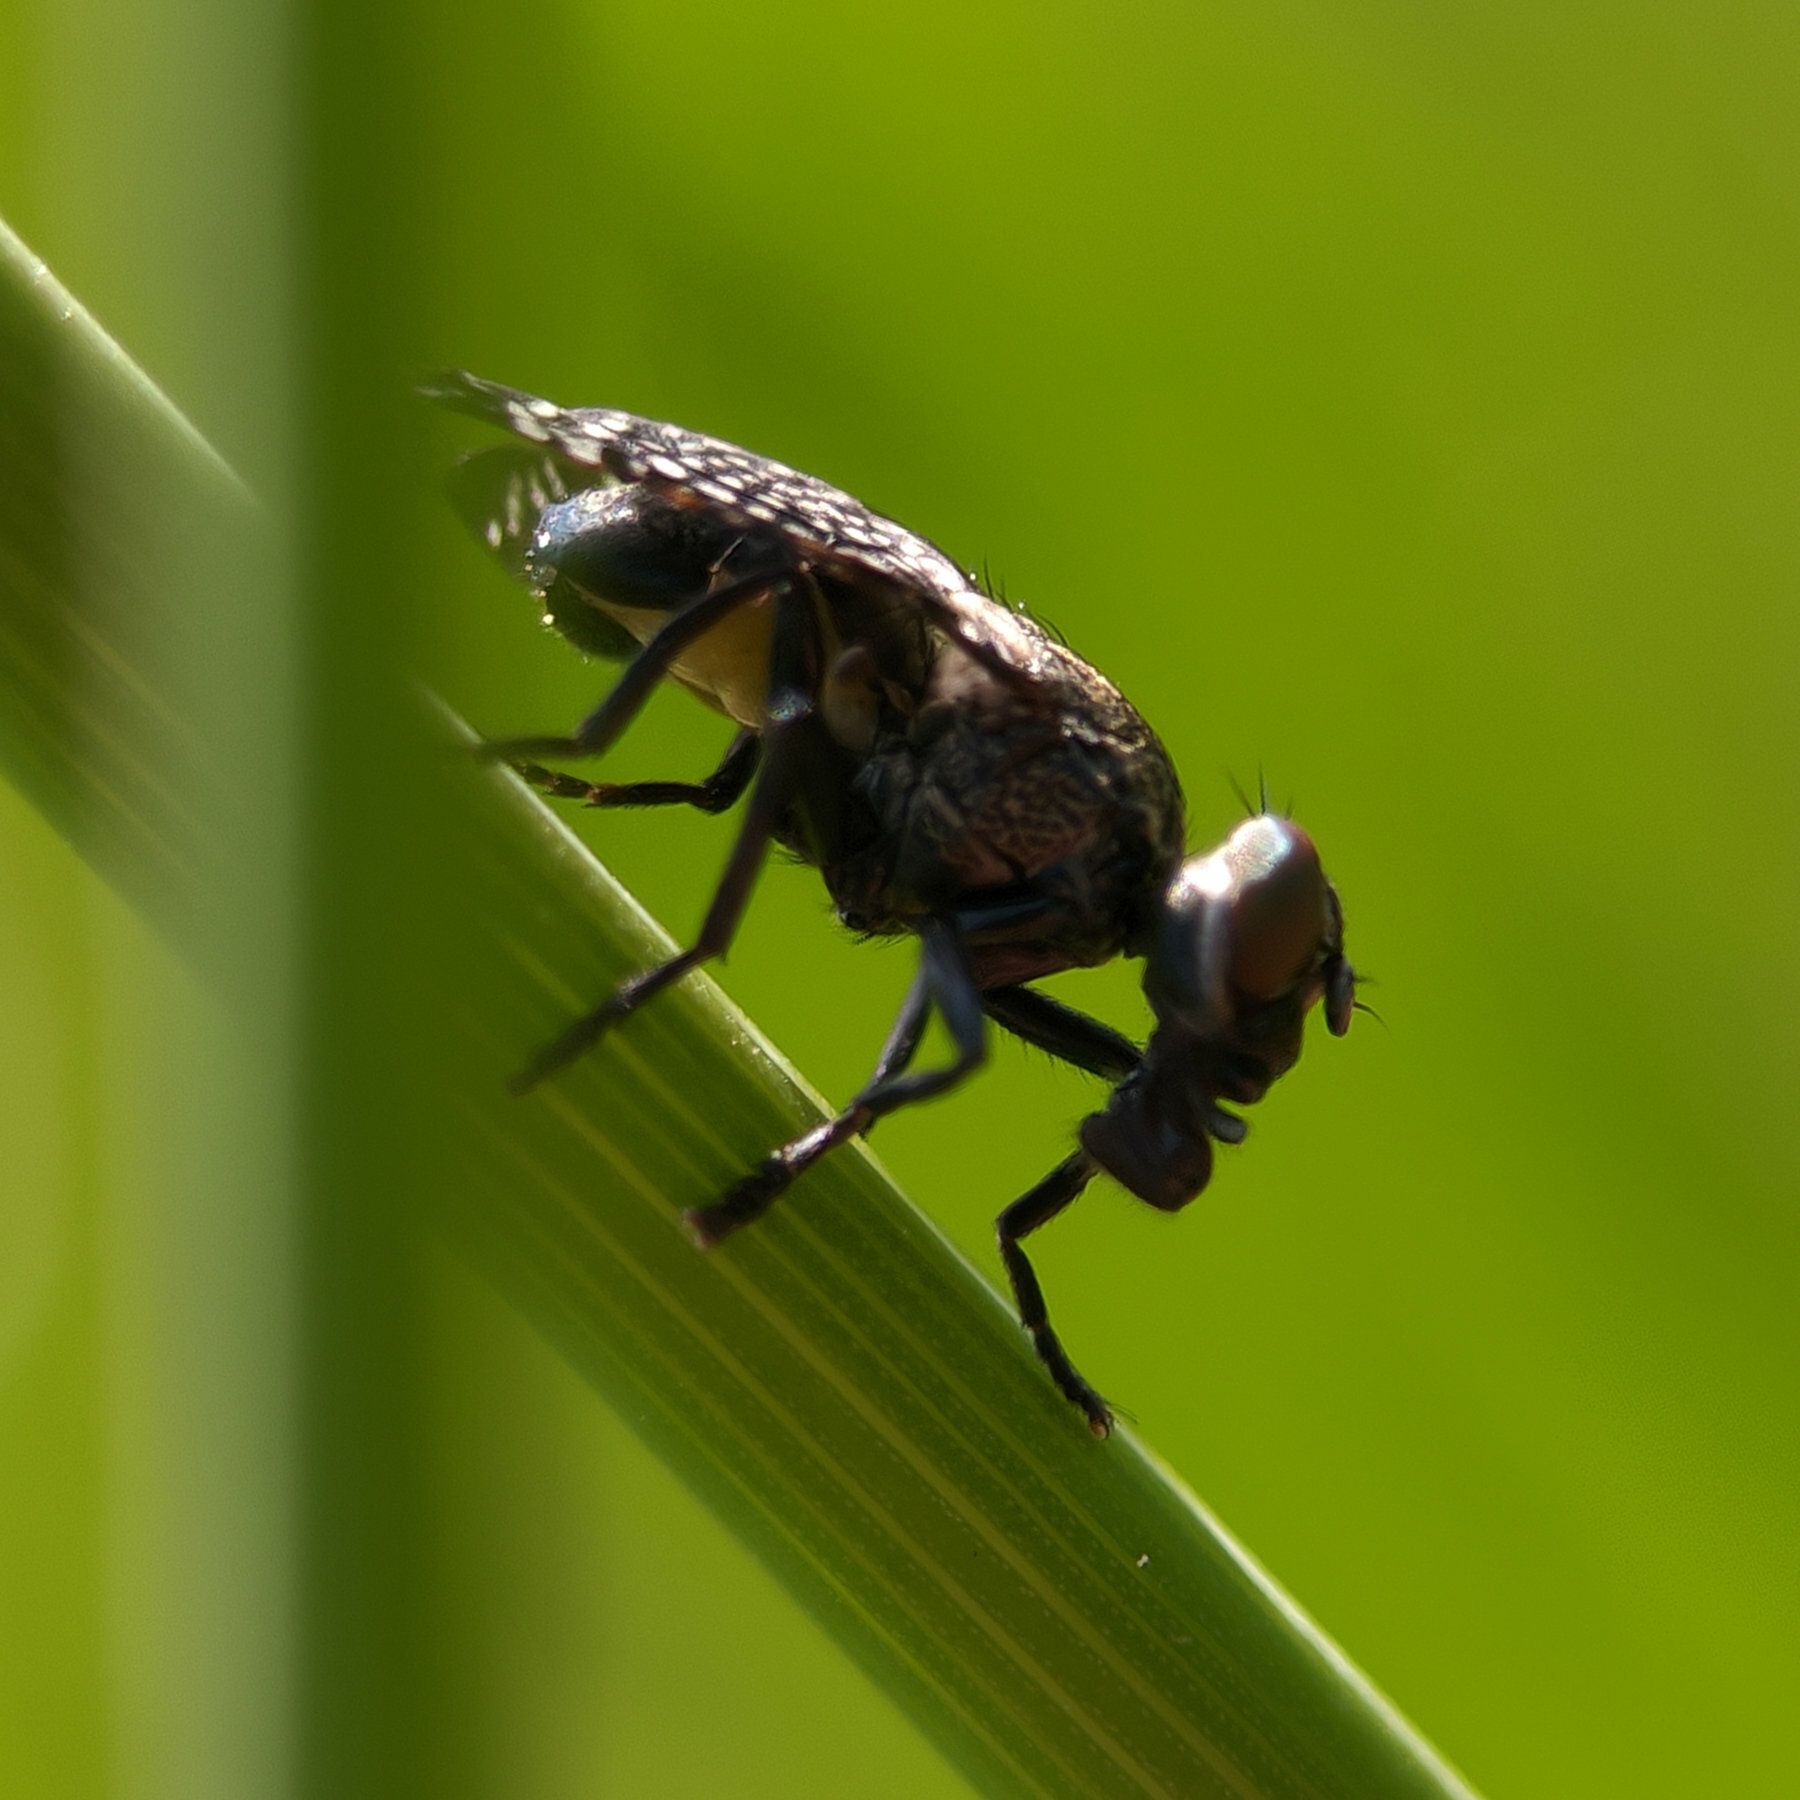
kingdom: Animalia
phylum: Arthropoda
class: Insecta
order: Diptera
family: Platystomatidae
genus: Platystoma
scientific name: Platystoma seminationis
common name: Fly
